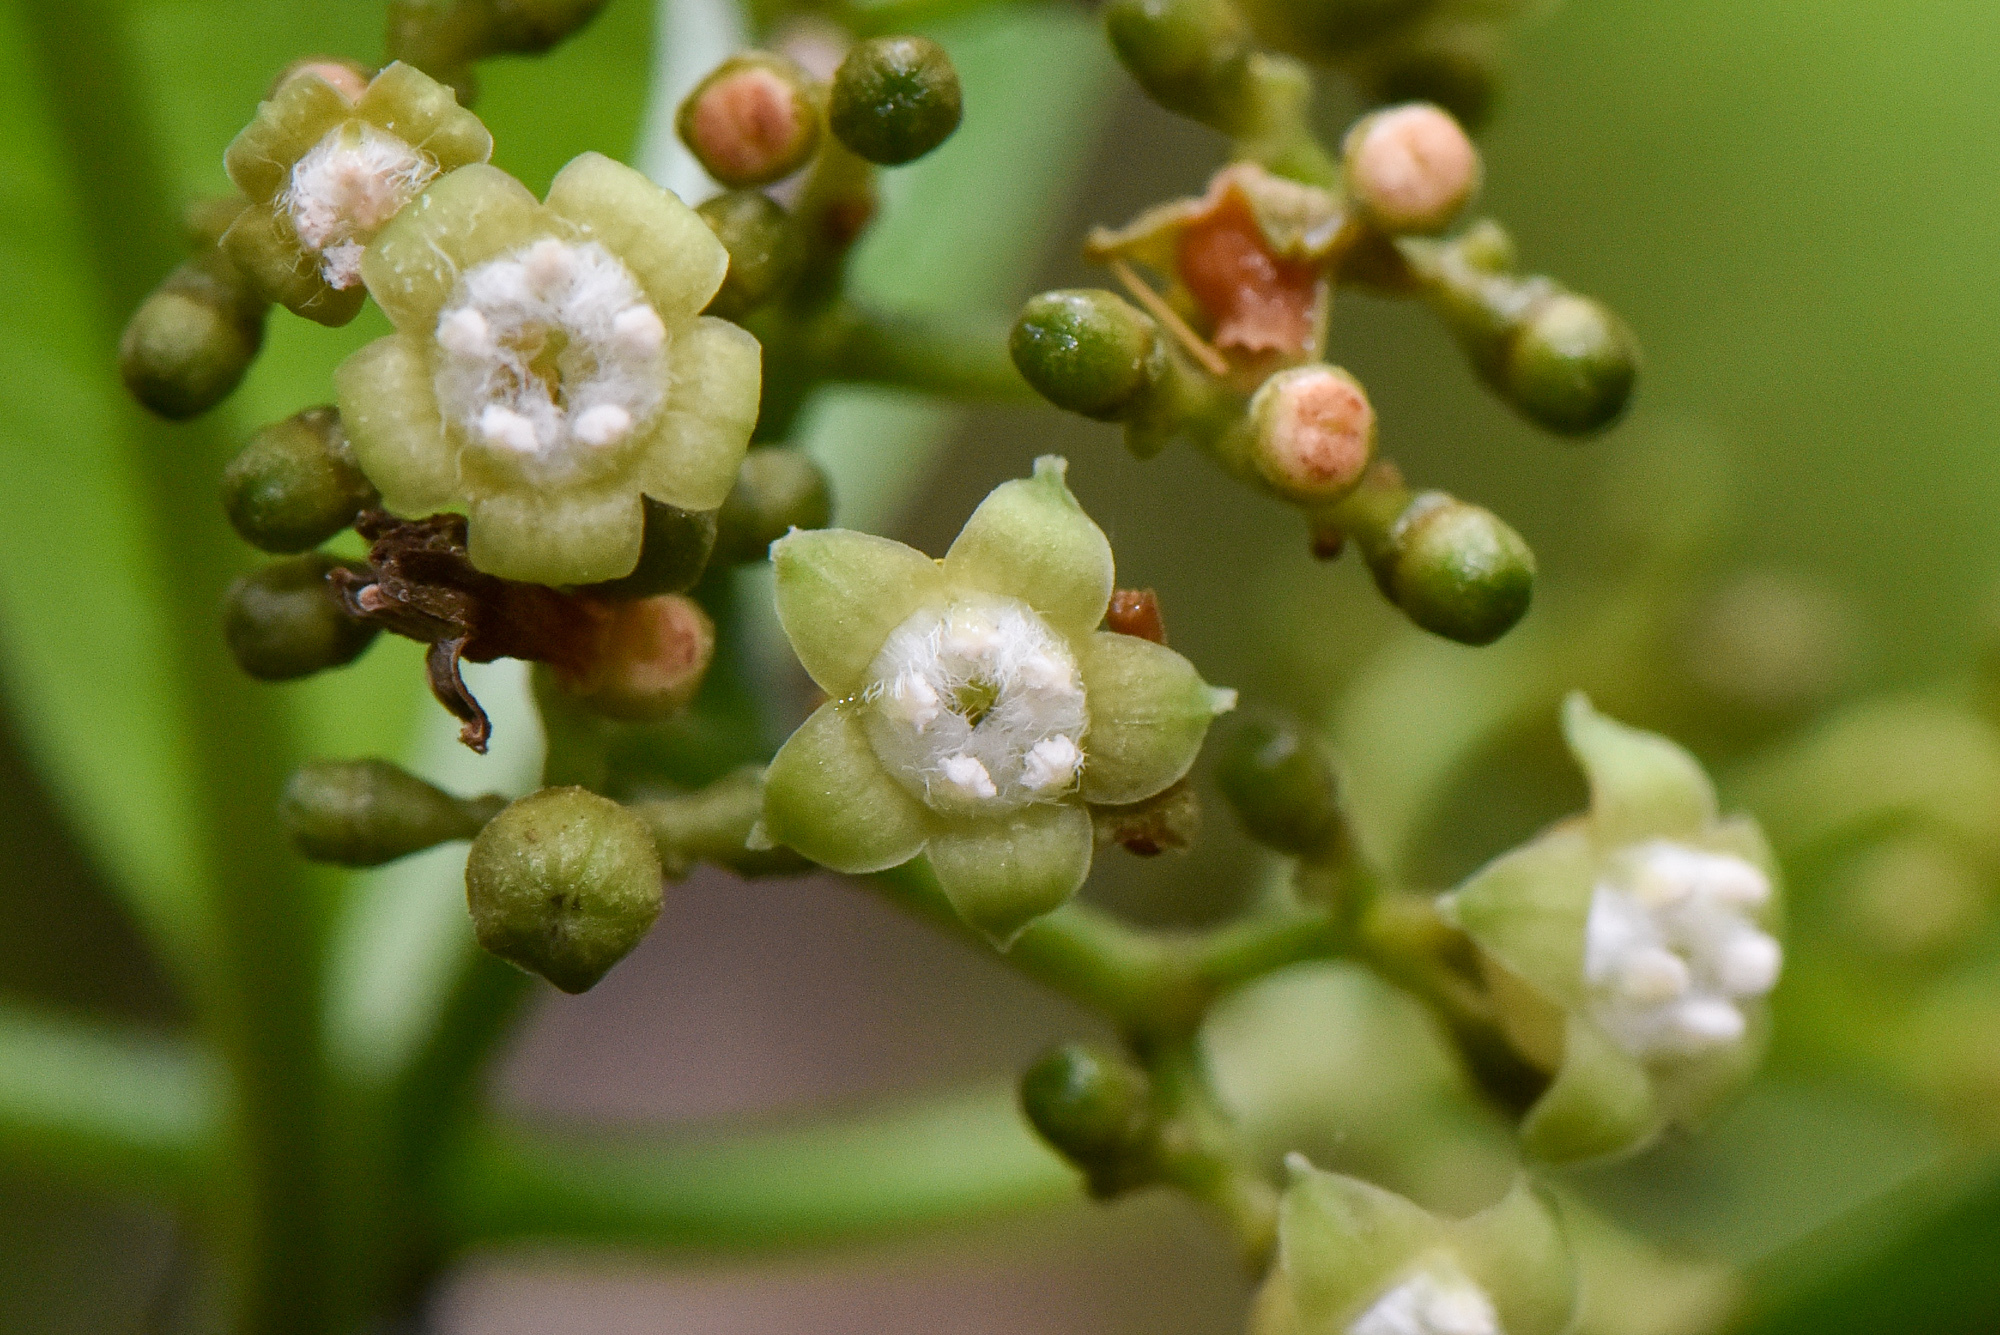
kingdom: Plantae
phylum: Tracheophyta
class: Magnoliopsida
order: Gentianales
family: Rubiaceae
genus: Psychotria
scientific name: Psychotria asiatica
